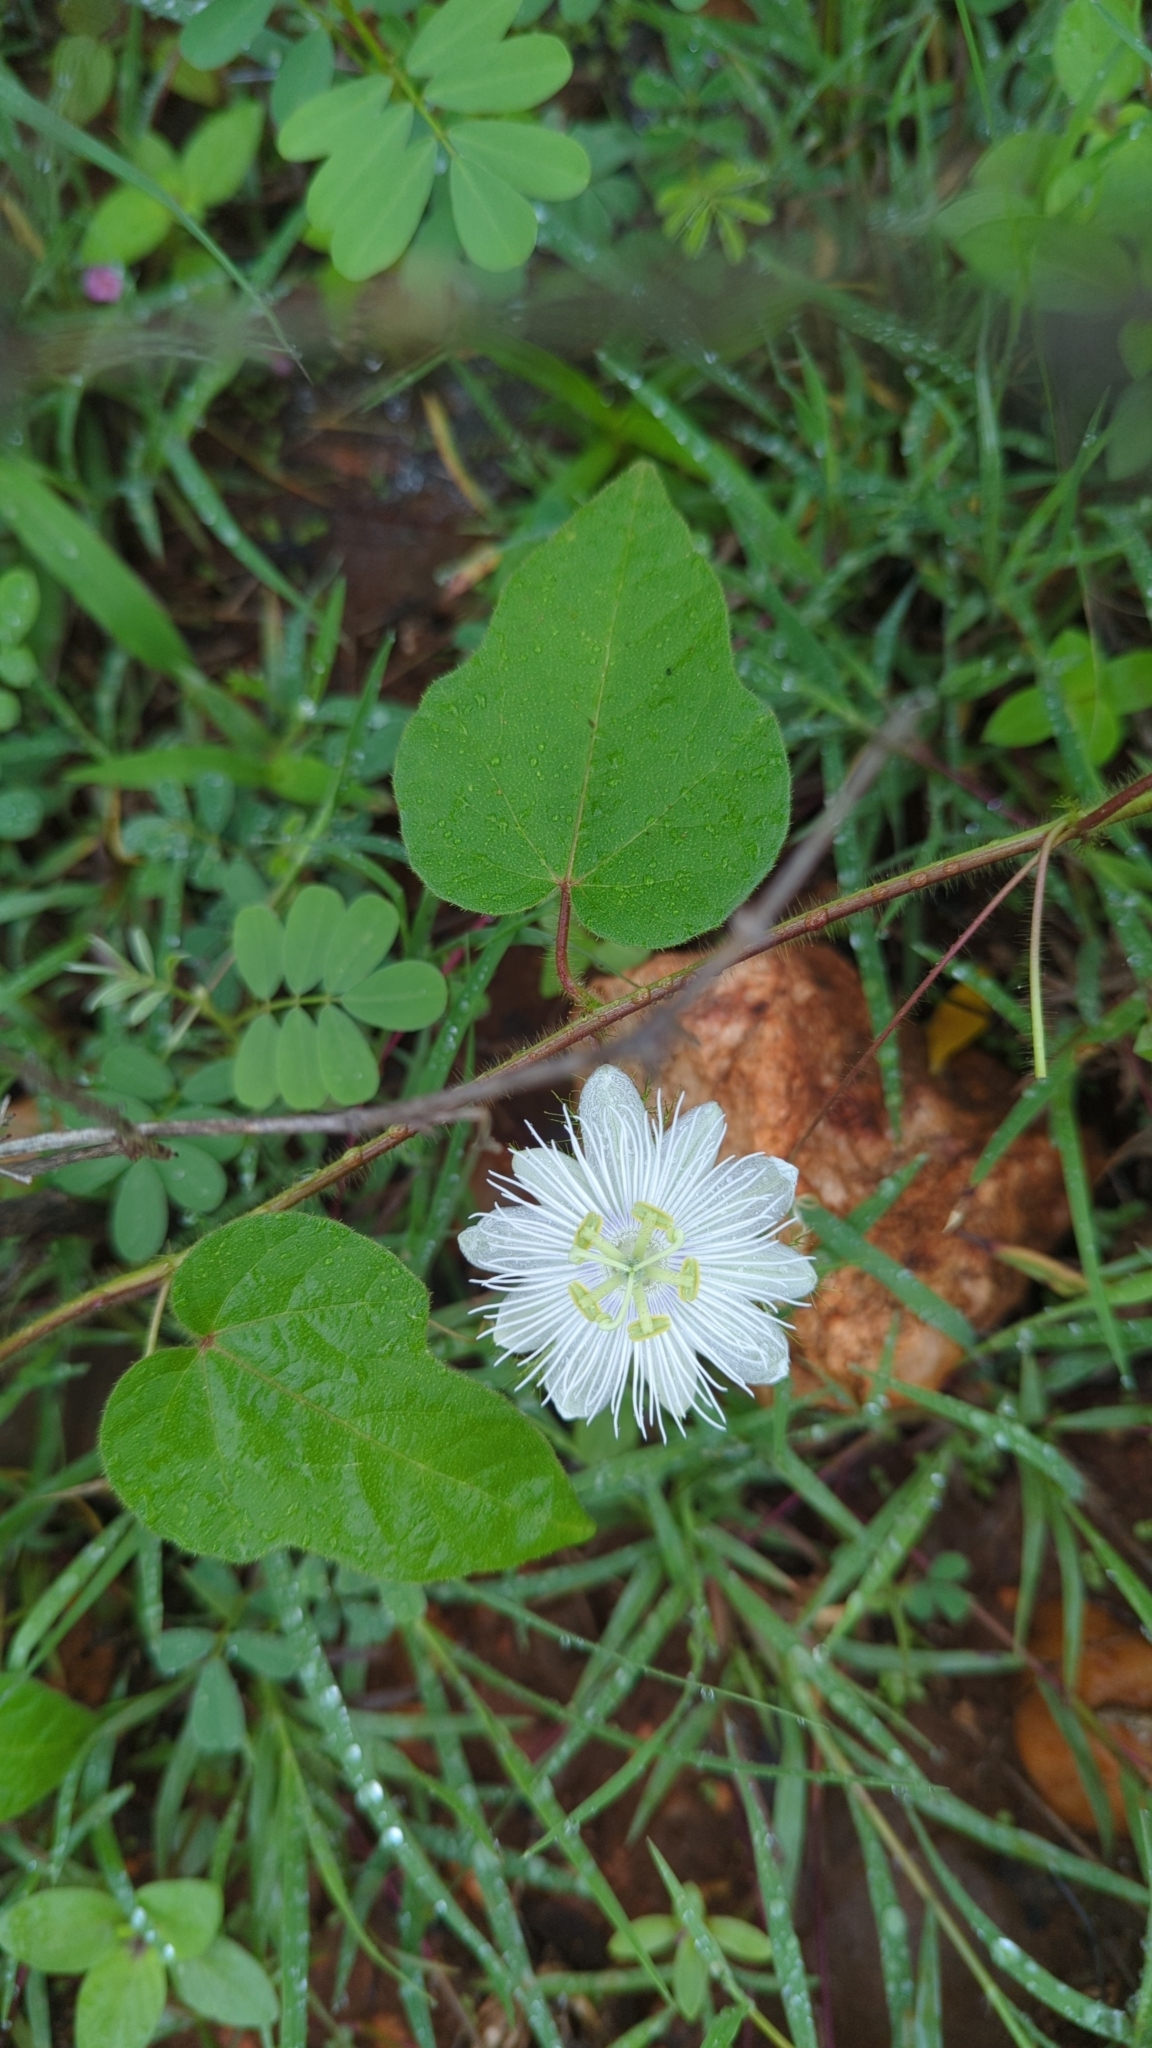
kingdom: Plantae
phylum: Tracheophyta
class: Magnoliopsida
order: Malpighiales
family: Passifloraceae
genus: Passiflora
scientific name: Passiflora foetida
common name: Fetid passionflower
